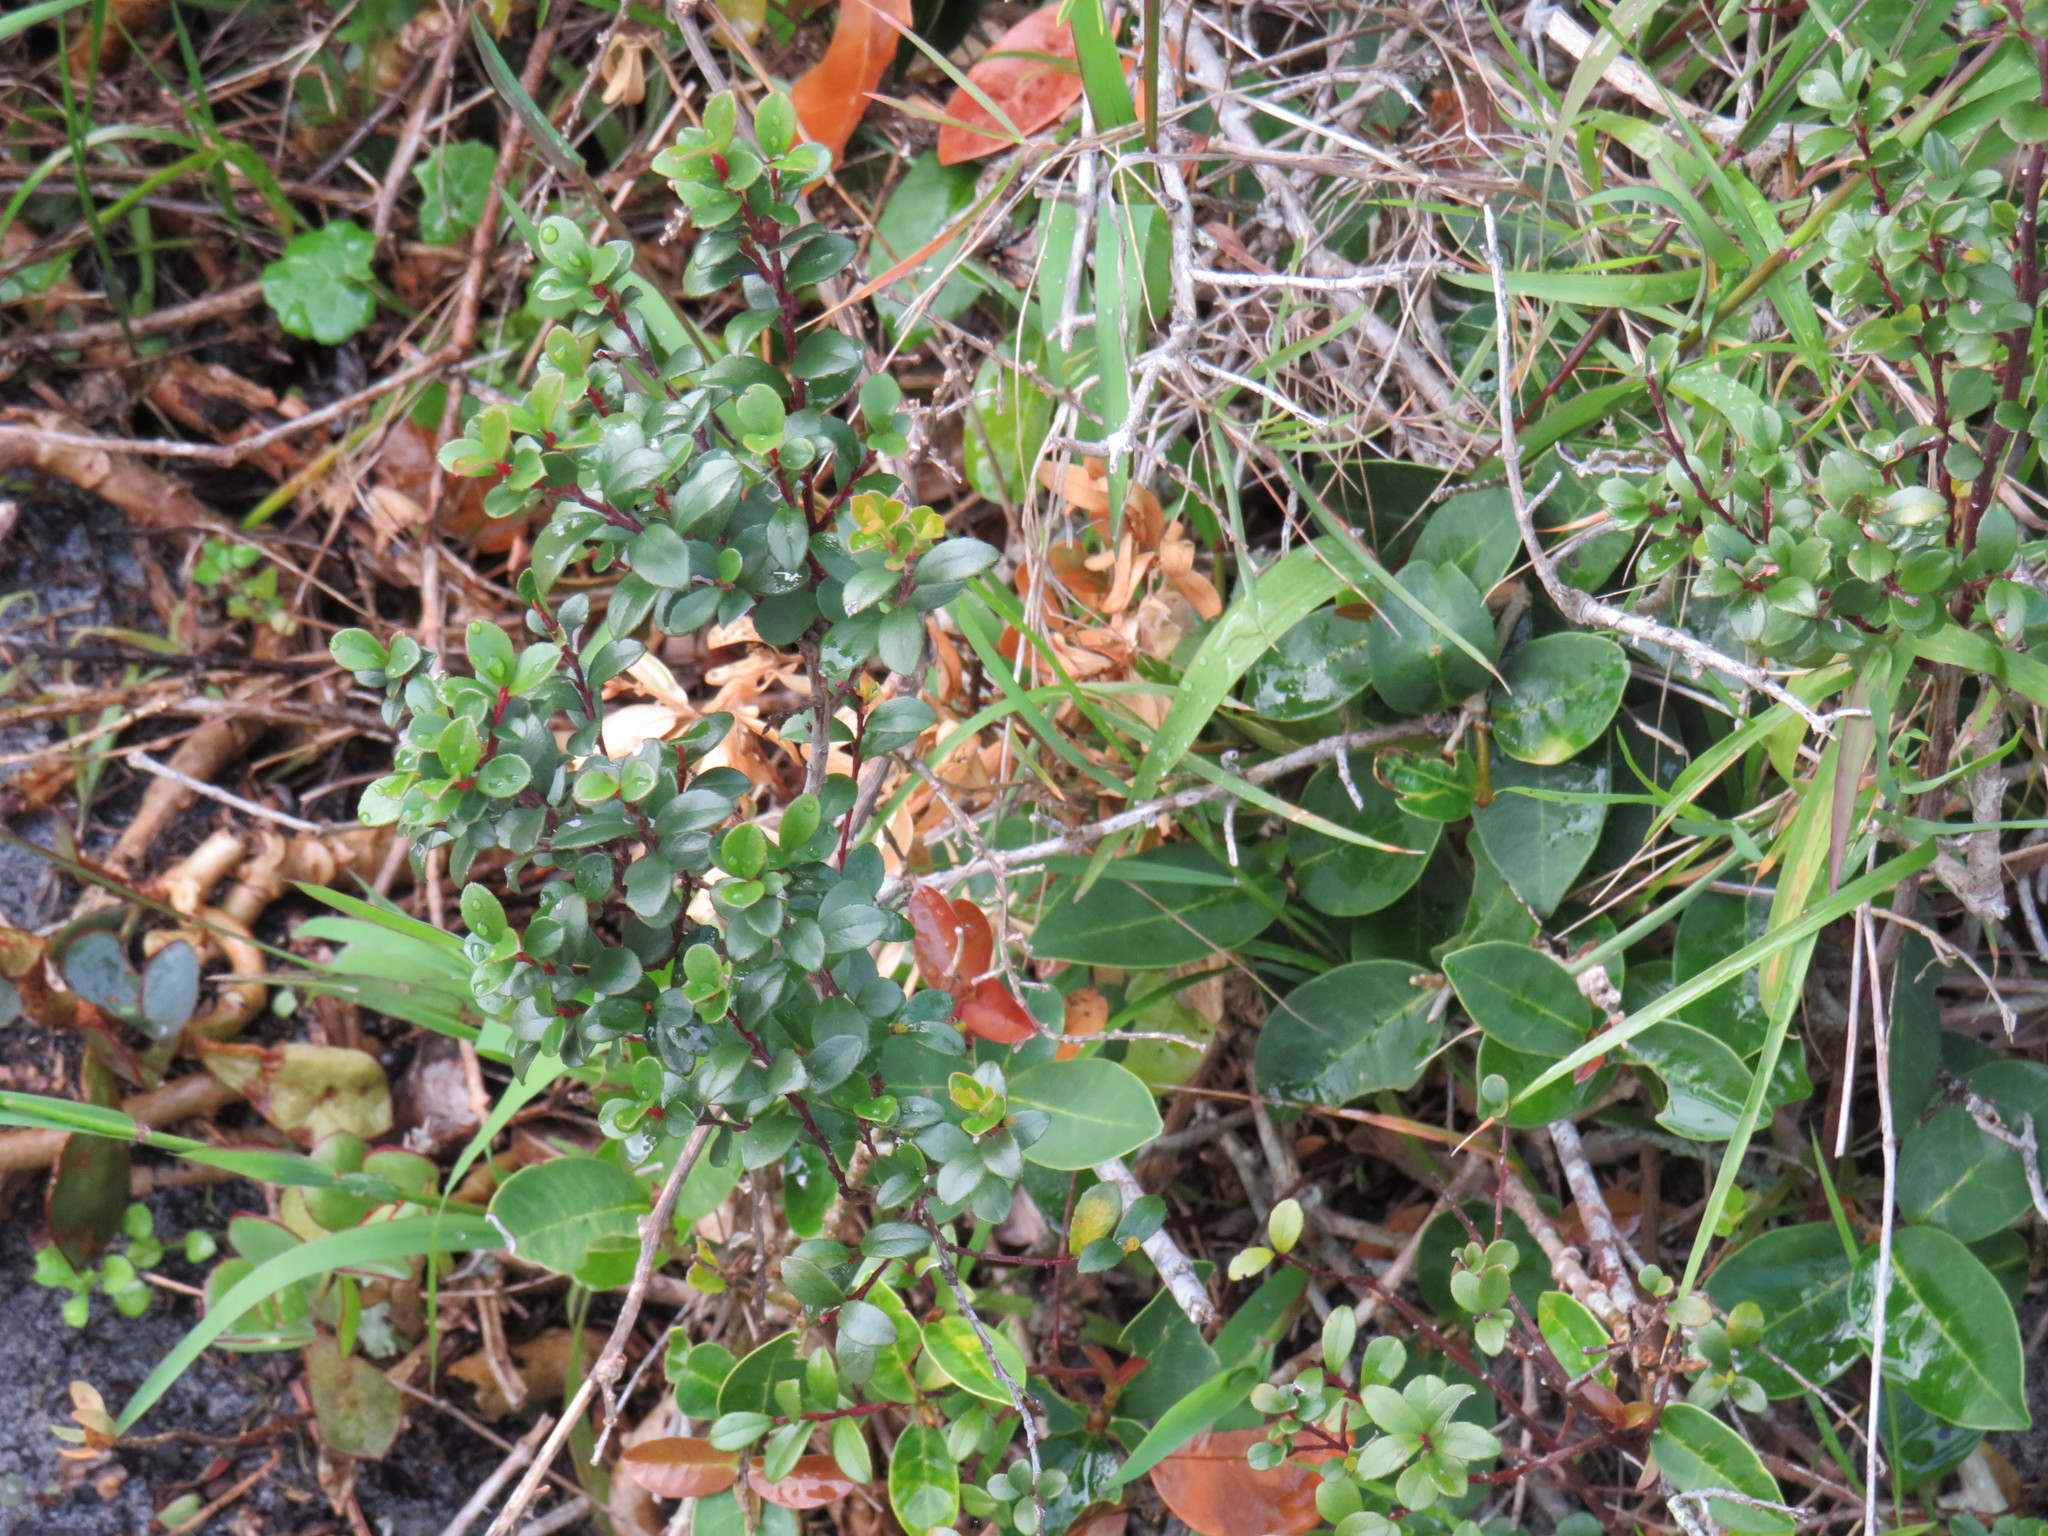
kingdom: Plantae
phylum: Tracheophyta
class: Magnoliopsida
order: Ericales
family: Primulaceae
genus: Myrsine
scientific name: Myrsine africana
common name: African-boxwood
